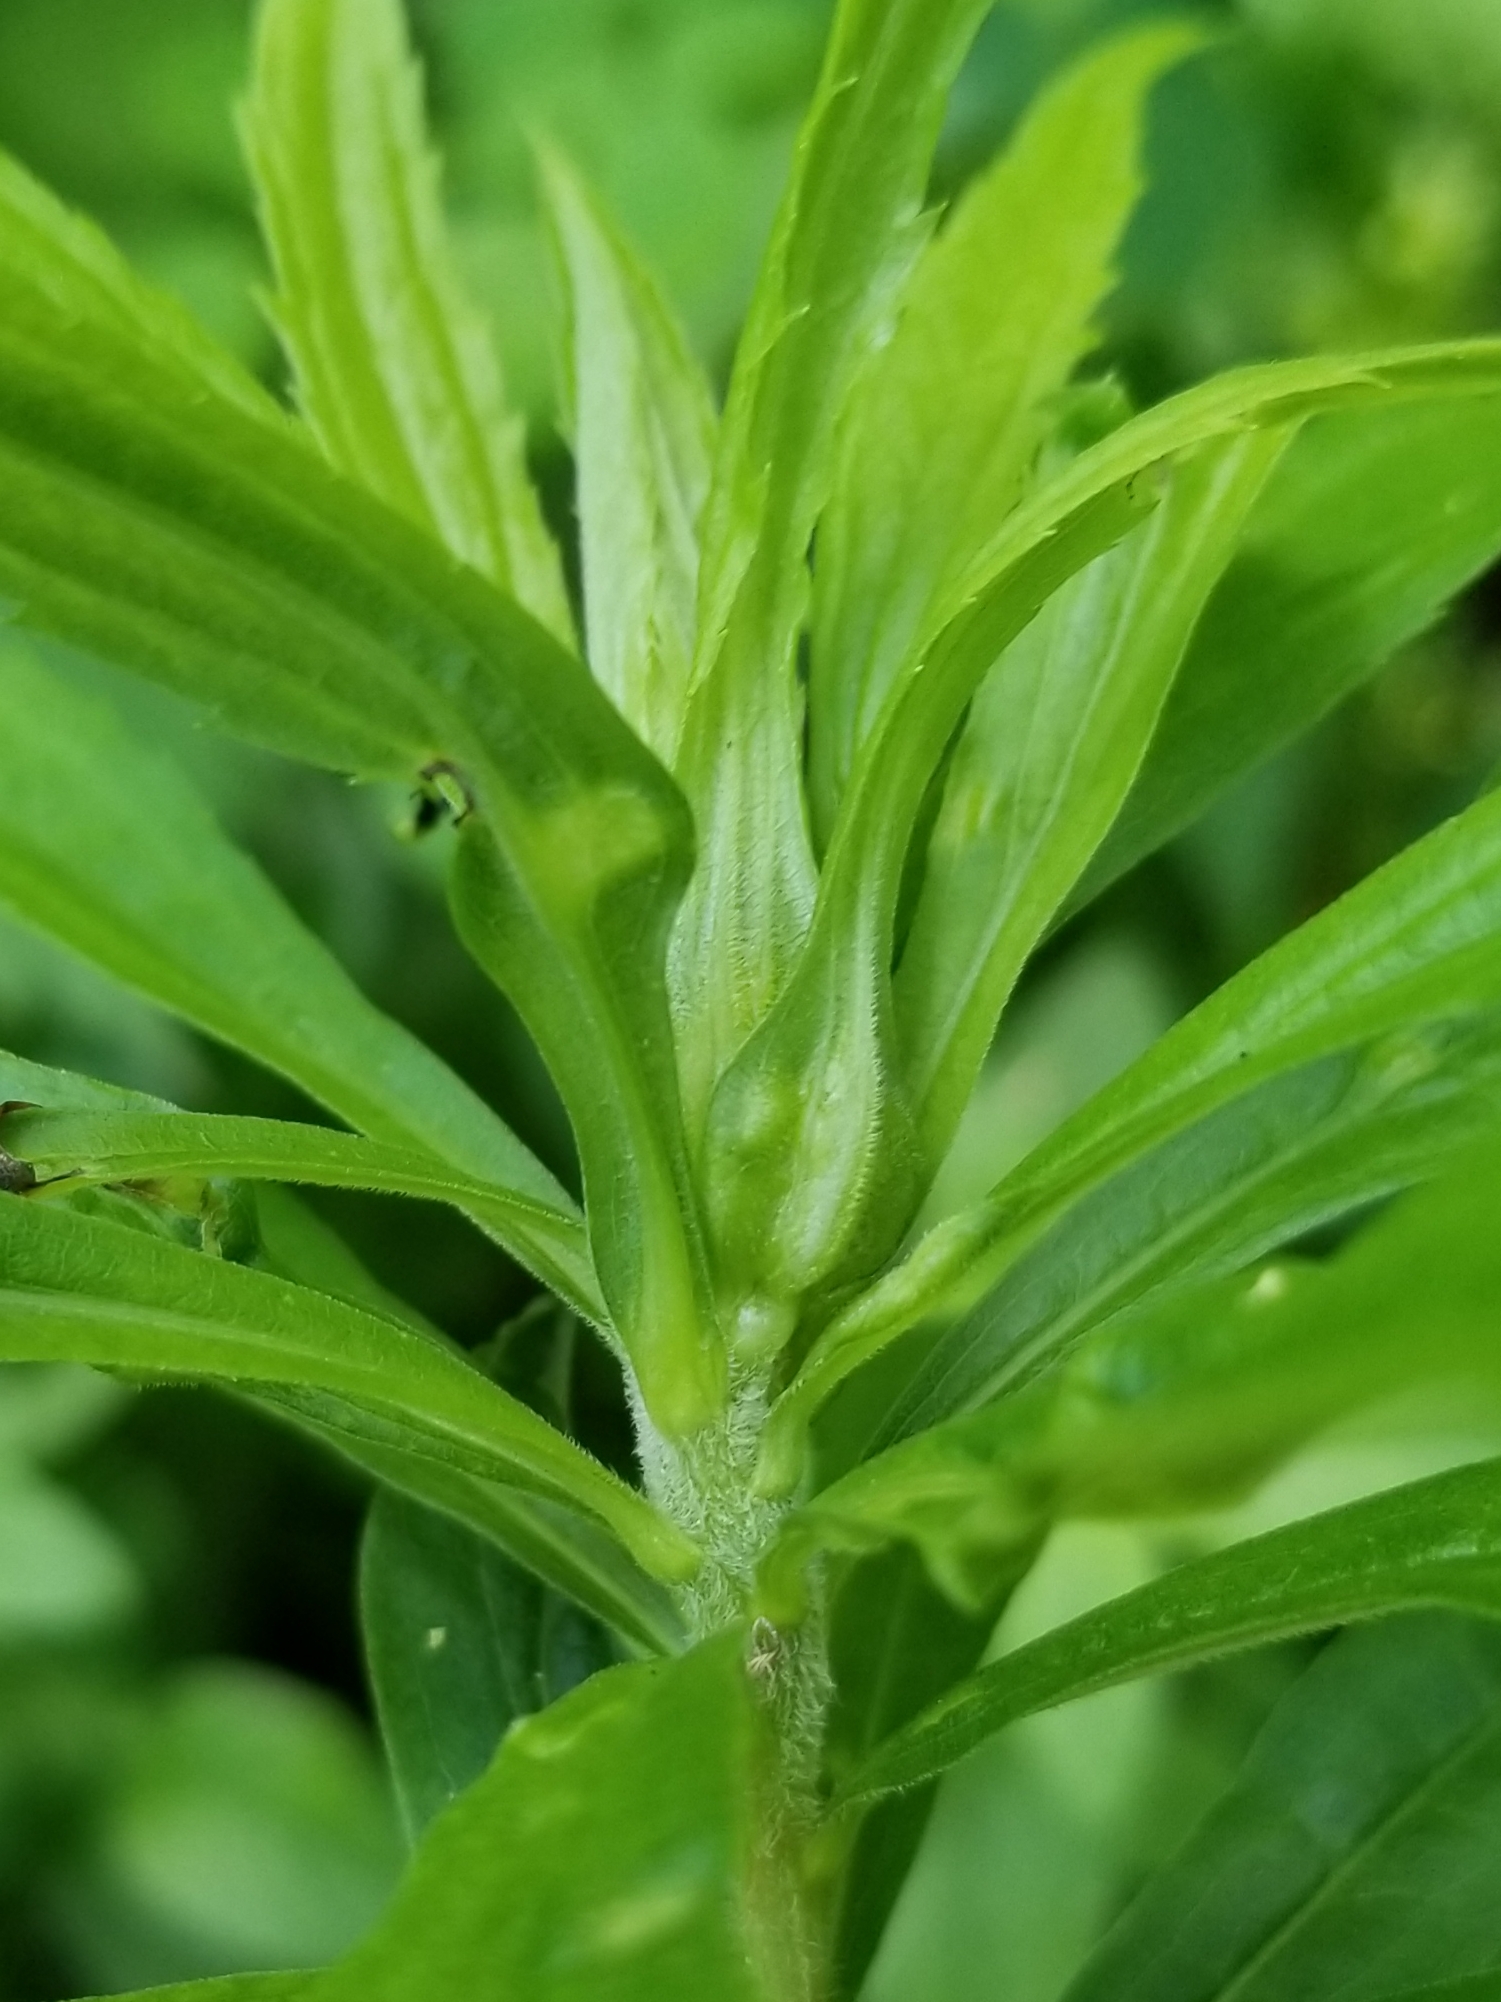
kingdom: Animalia
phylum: Arthropoda
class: Insecta
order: Diptera
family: Cecidomyiidae
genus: Dasineura
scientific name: Dasineura folliculi
